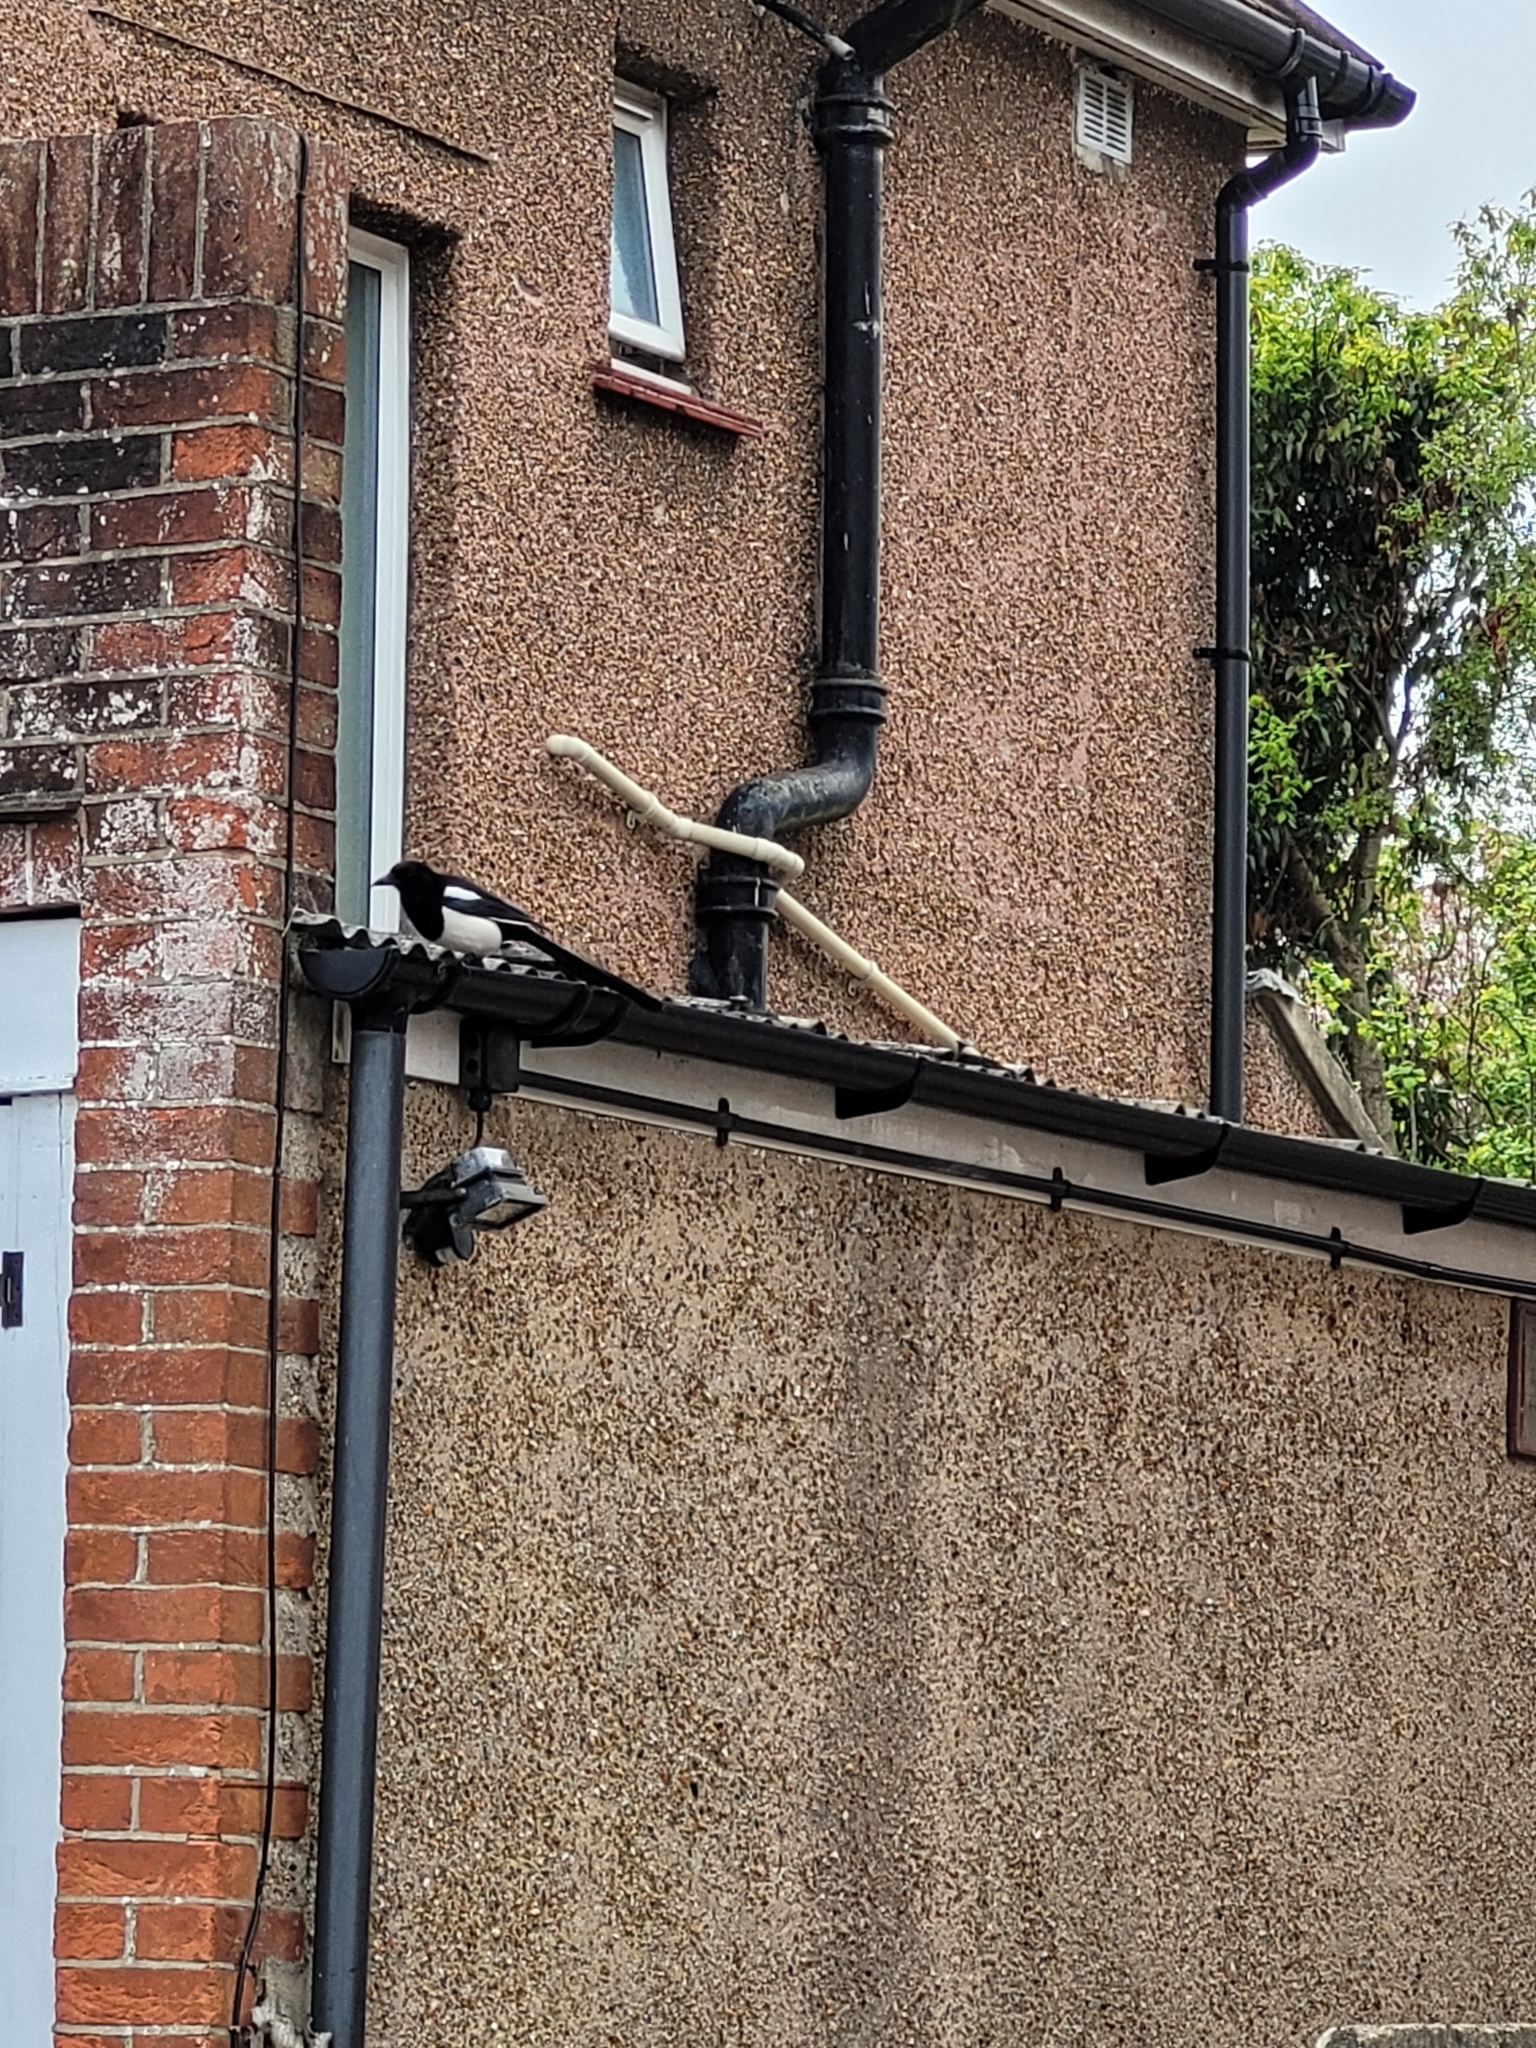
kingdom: Animalia
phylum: Chordata
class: Aves
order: Passeriformes
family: Corvidae
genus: Pica
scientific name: Pica pica
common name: Eurasian magpie
